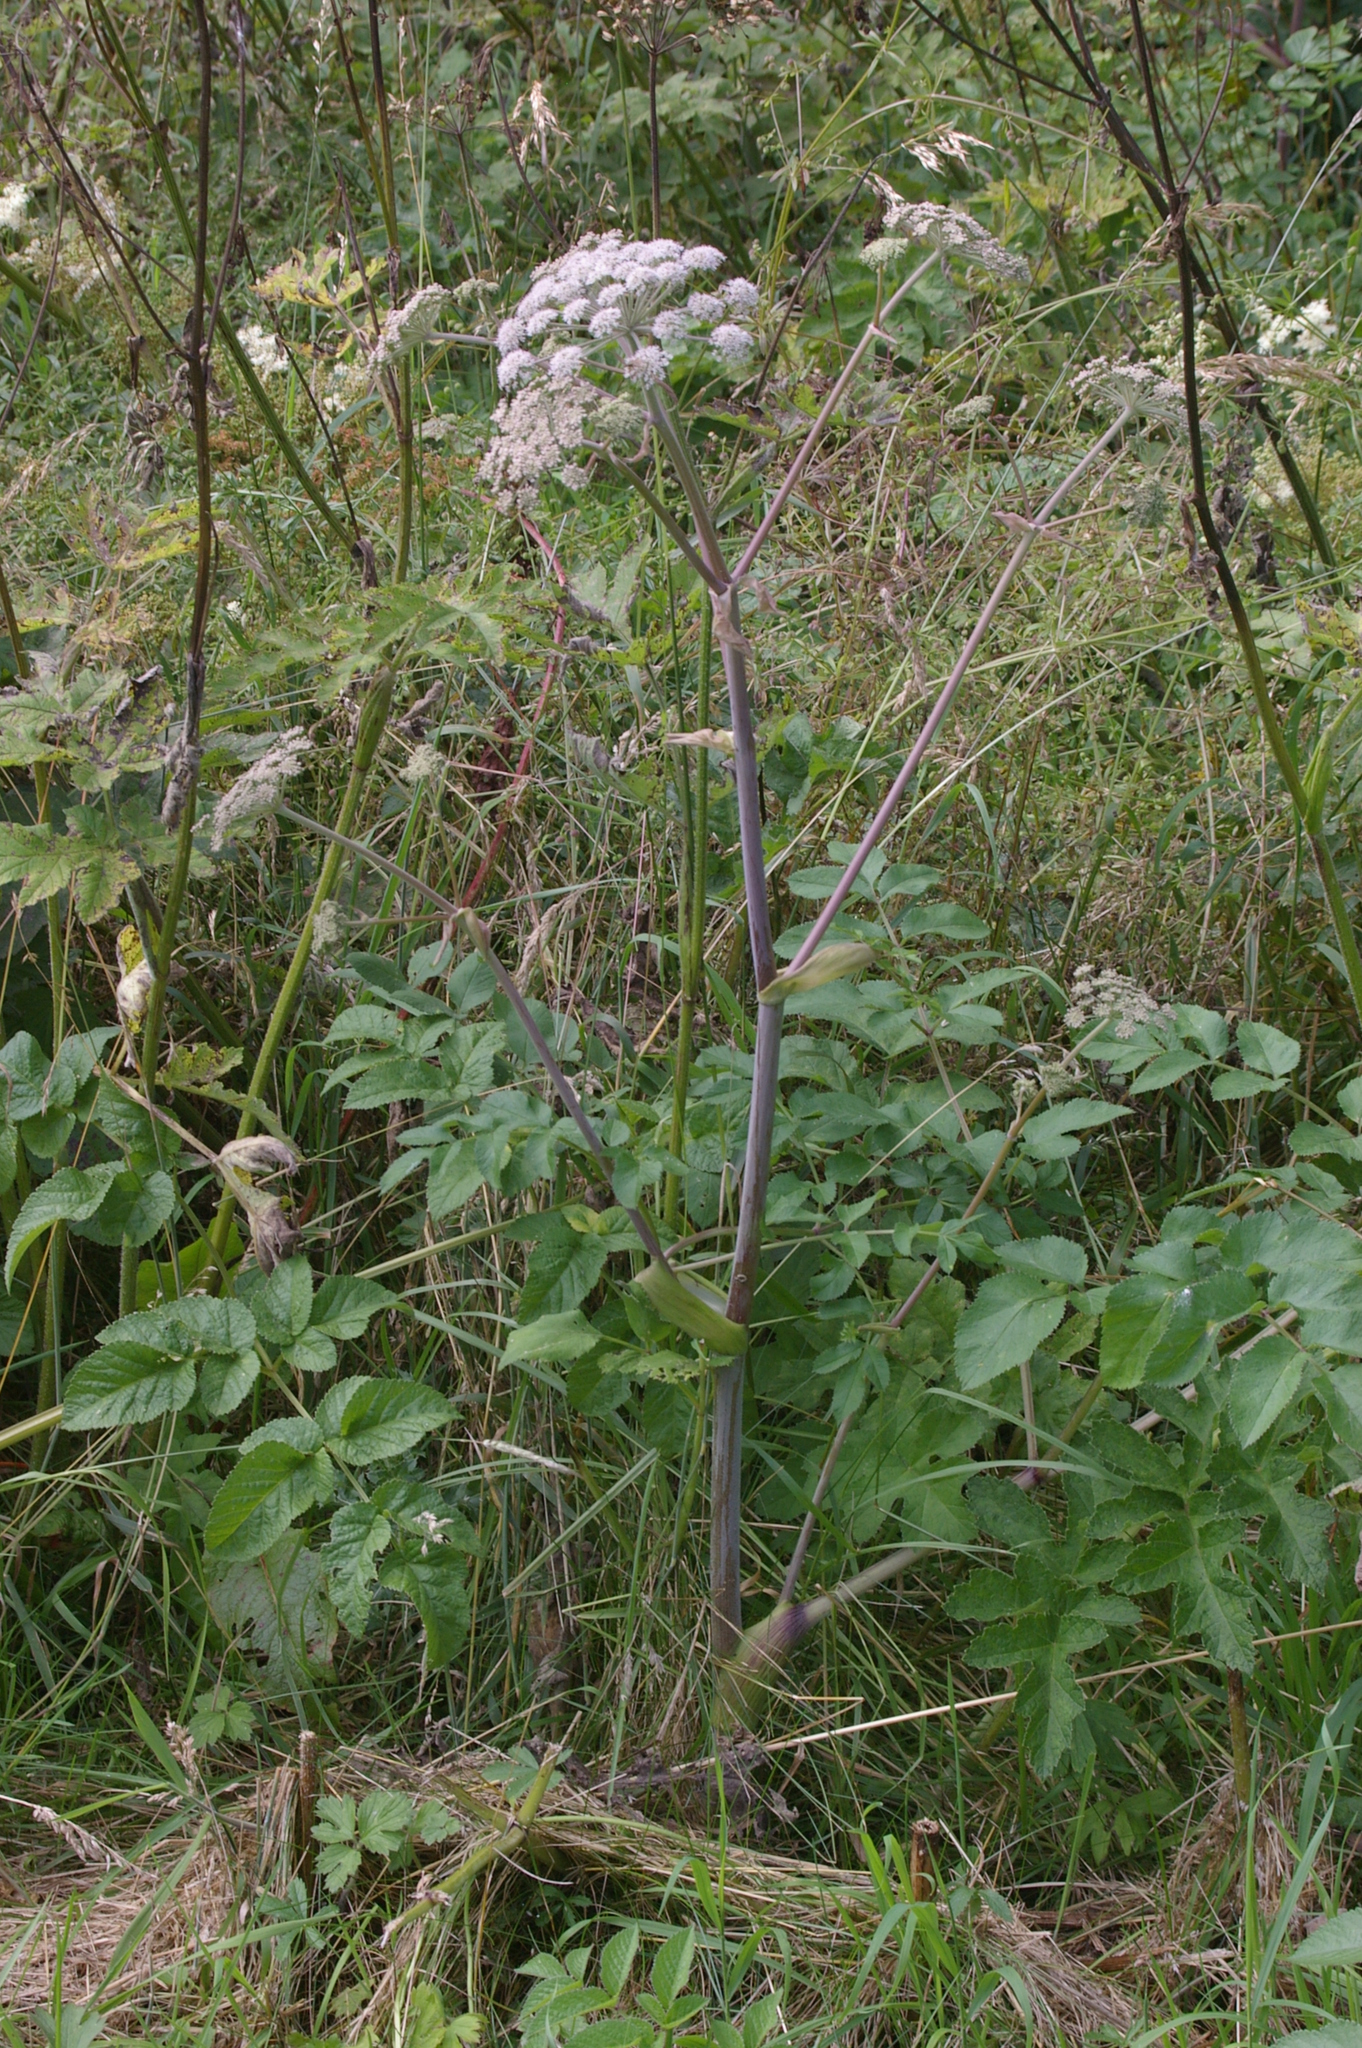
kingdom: Plantae
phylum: Tracheophyta
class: Magnoliopsida
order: Apiales
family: Apiaceae
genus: Angelica
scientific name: Angelica sylvestris
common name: Wild angelica
